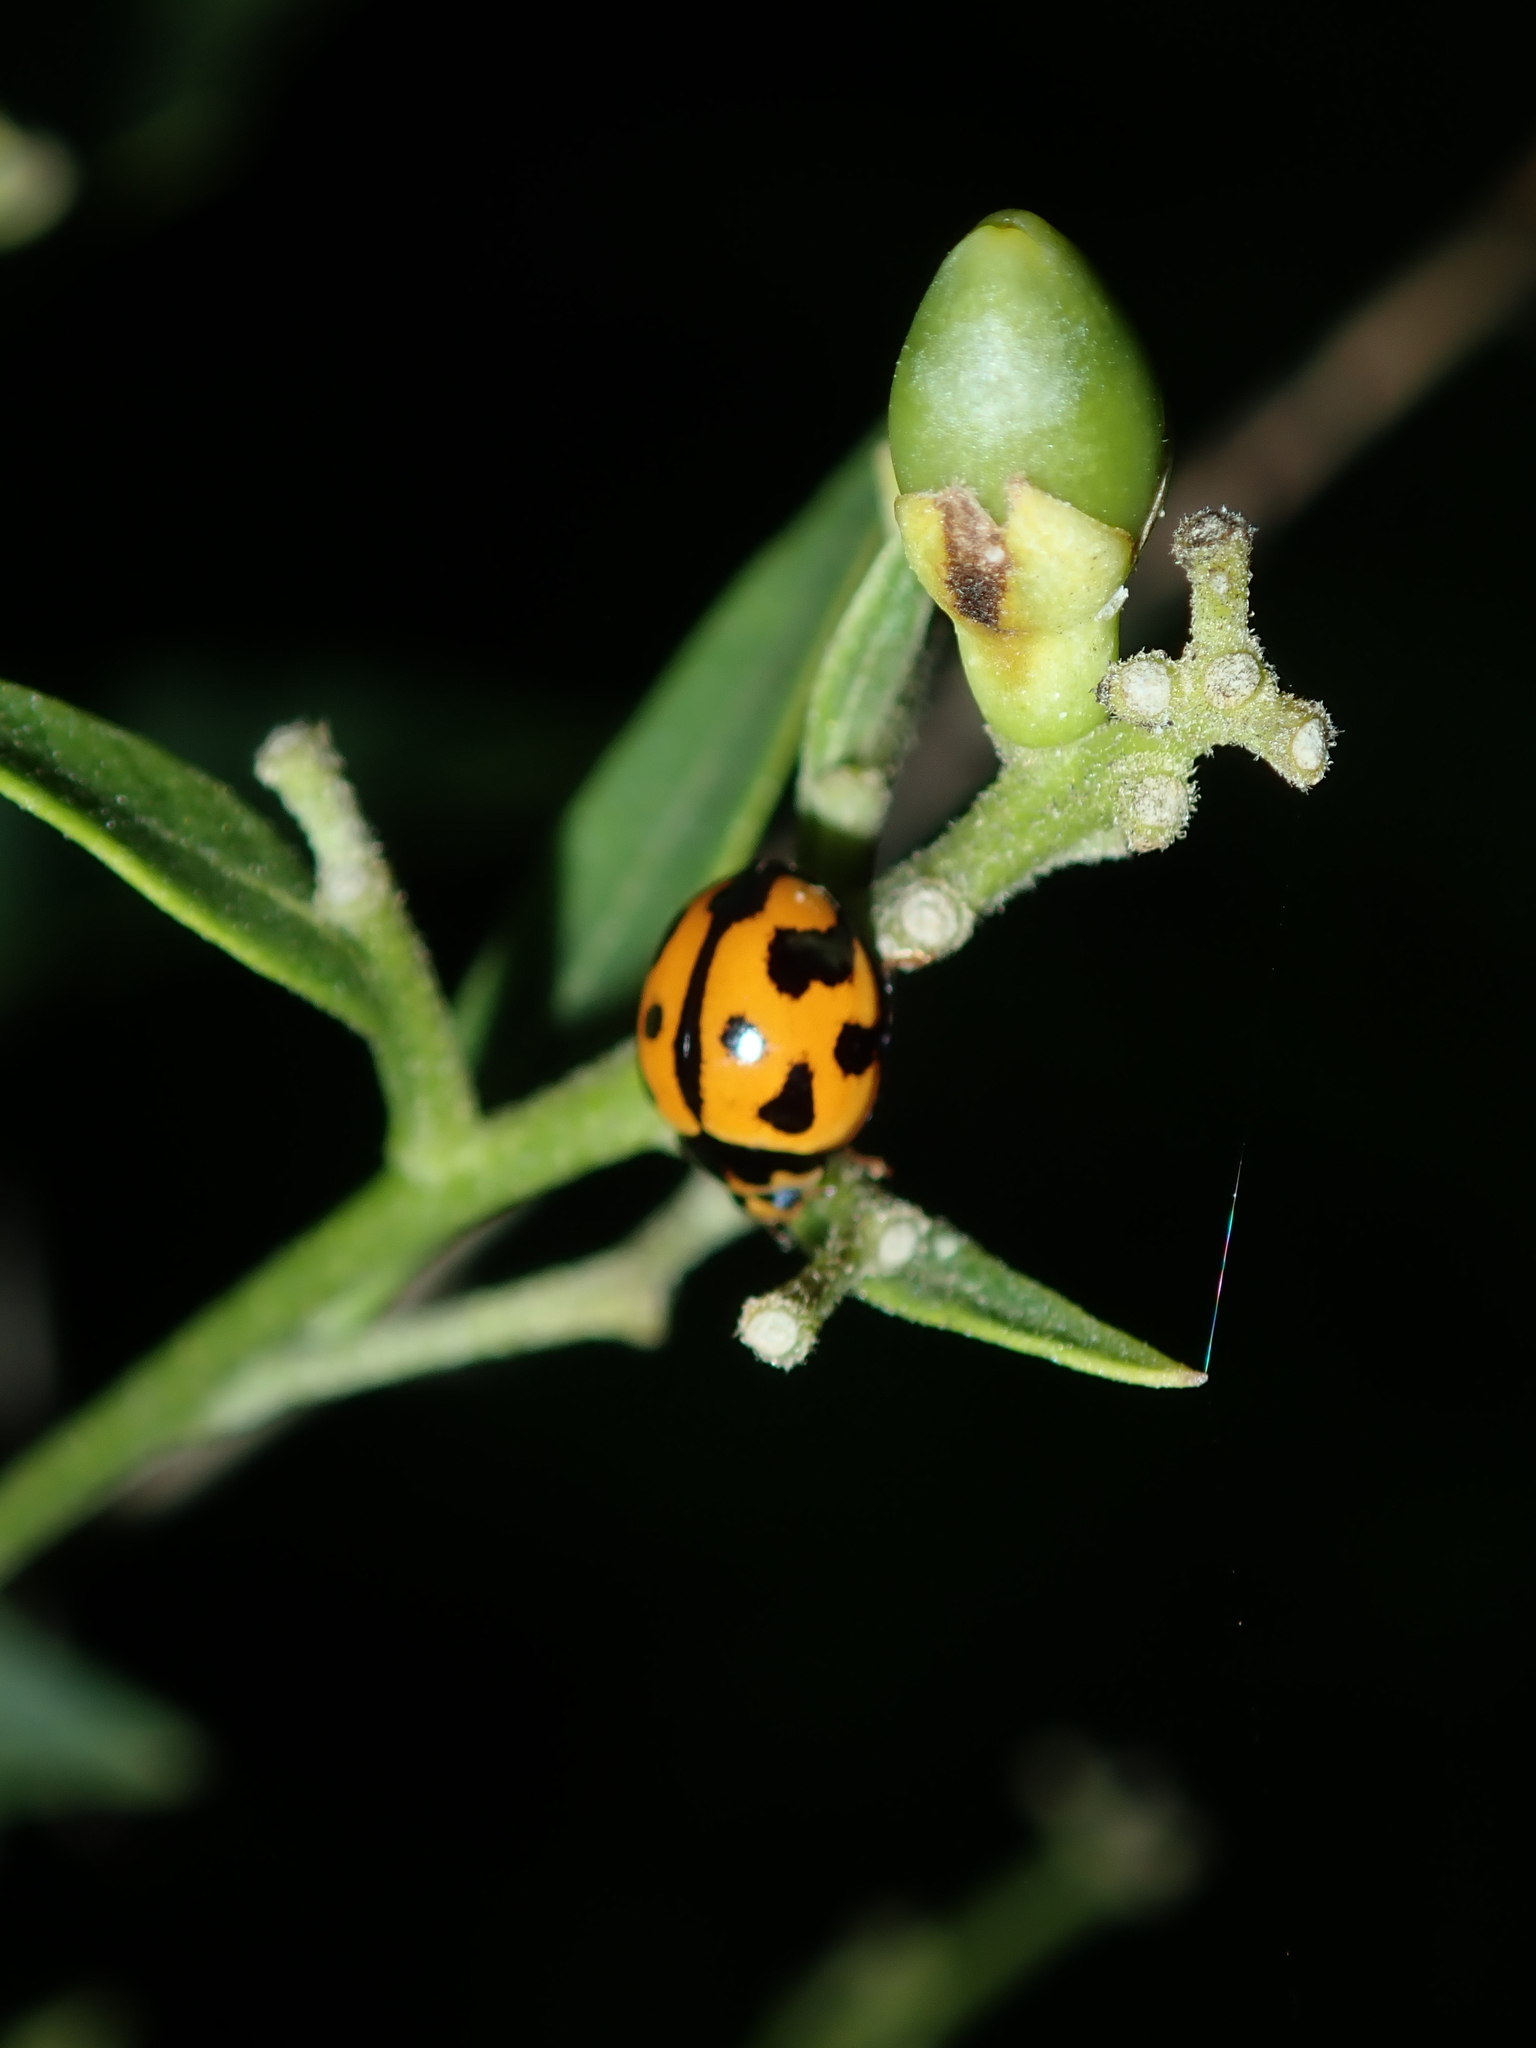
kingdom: Animalia
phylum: Arthropoda
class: Insecta
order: Coleoptera
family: Coccinellidae
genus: Coelophora
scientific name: Coelophora inaequalis
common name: Common australian lady beetle
